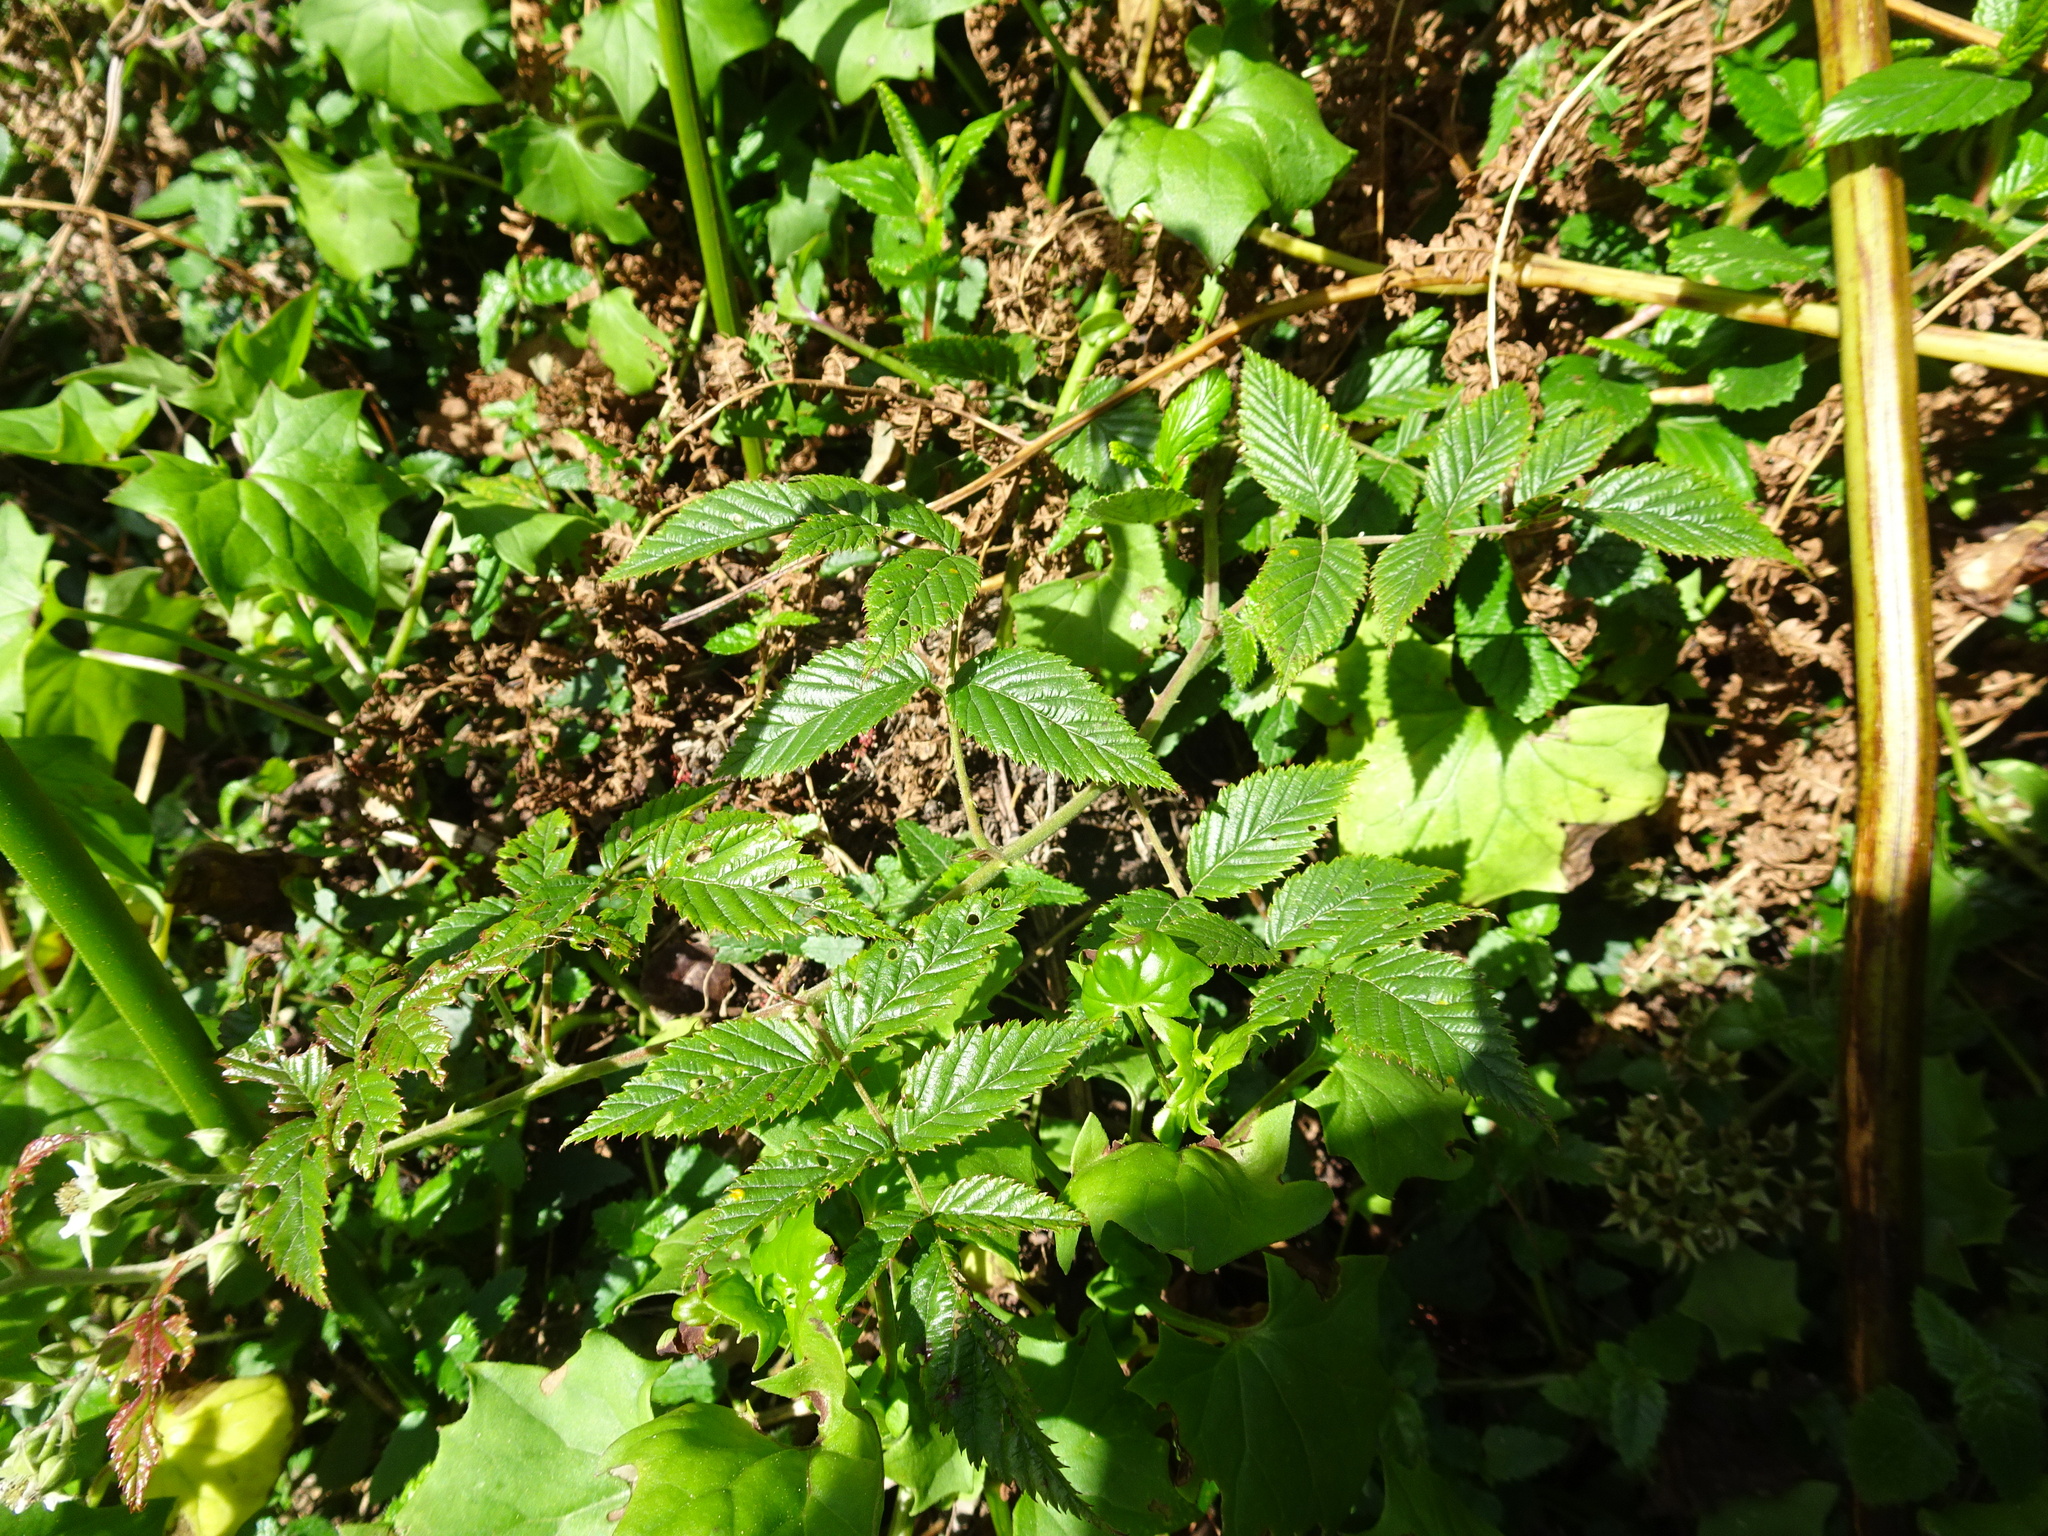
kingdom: Plantae
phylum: Tracheophyta
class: Magnoliopsida
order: Rosales
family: Rosaceae
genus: Rubus
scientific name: Rubus pinnatus
